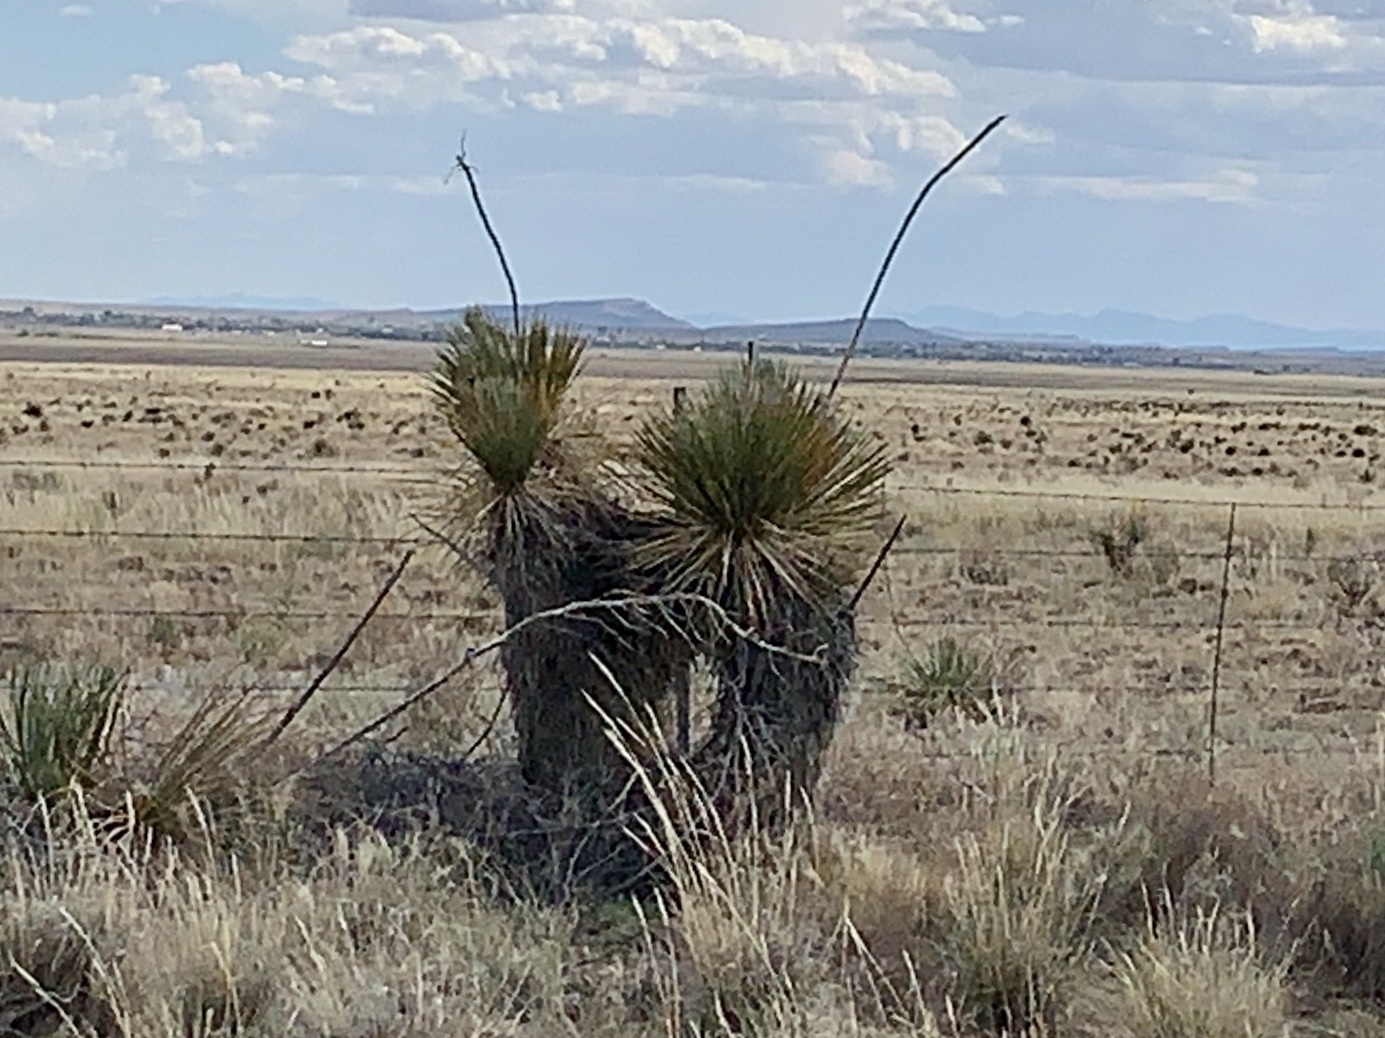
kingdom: Plantae
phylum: Tracheophyta
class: Liliopsida
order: Asparagales
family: Asparagaceae
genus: Yucca
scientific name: Yucca elata
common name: Palmella
